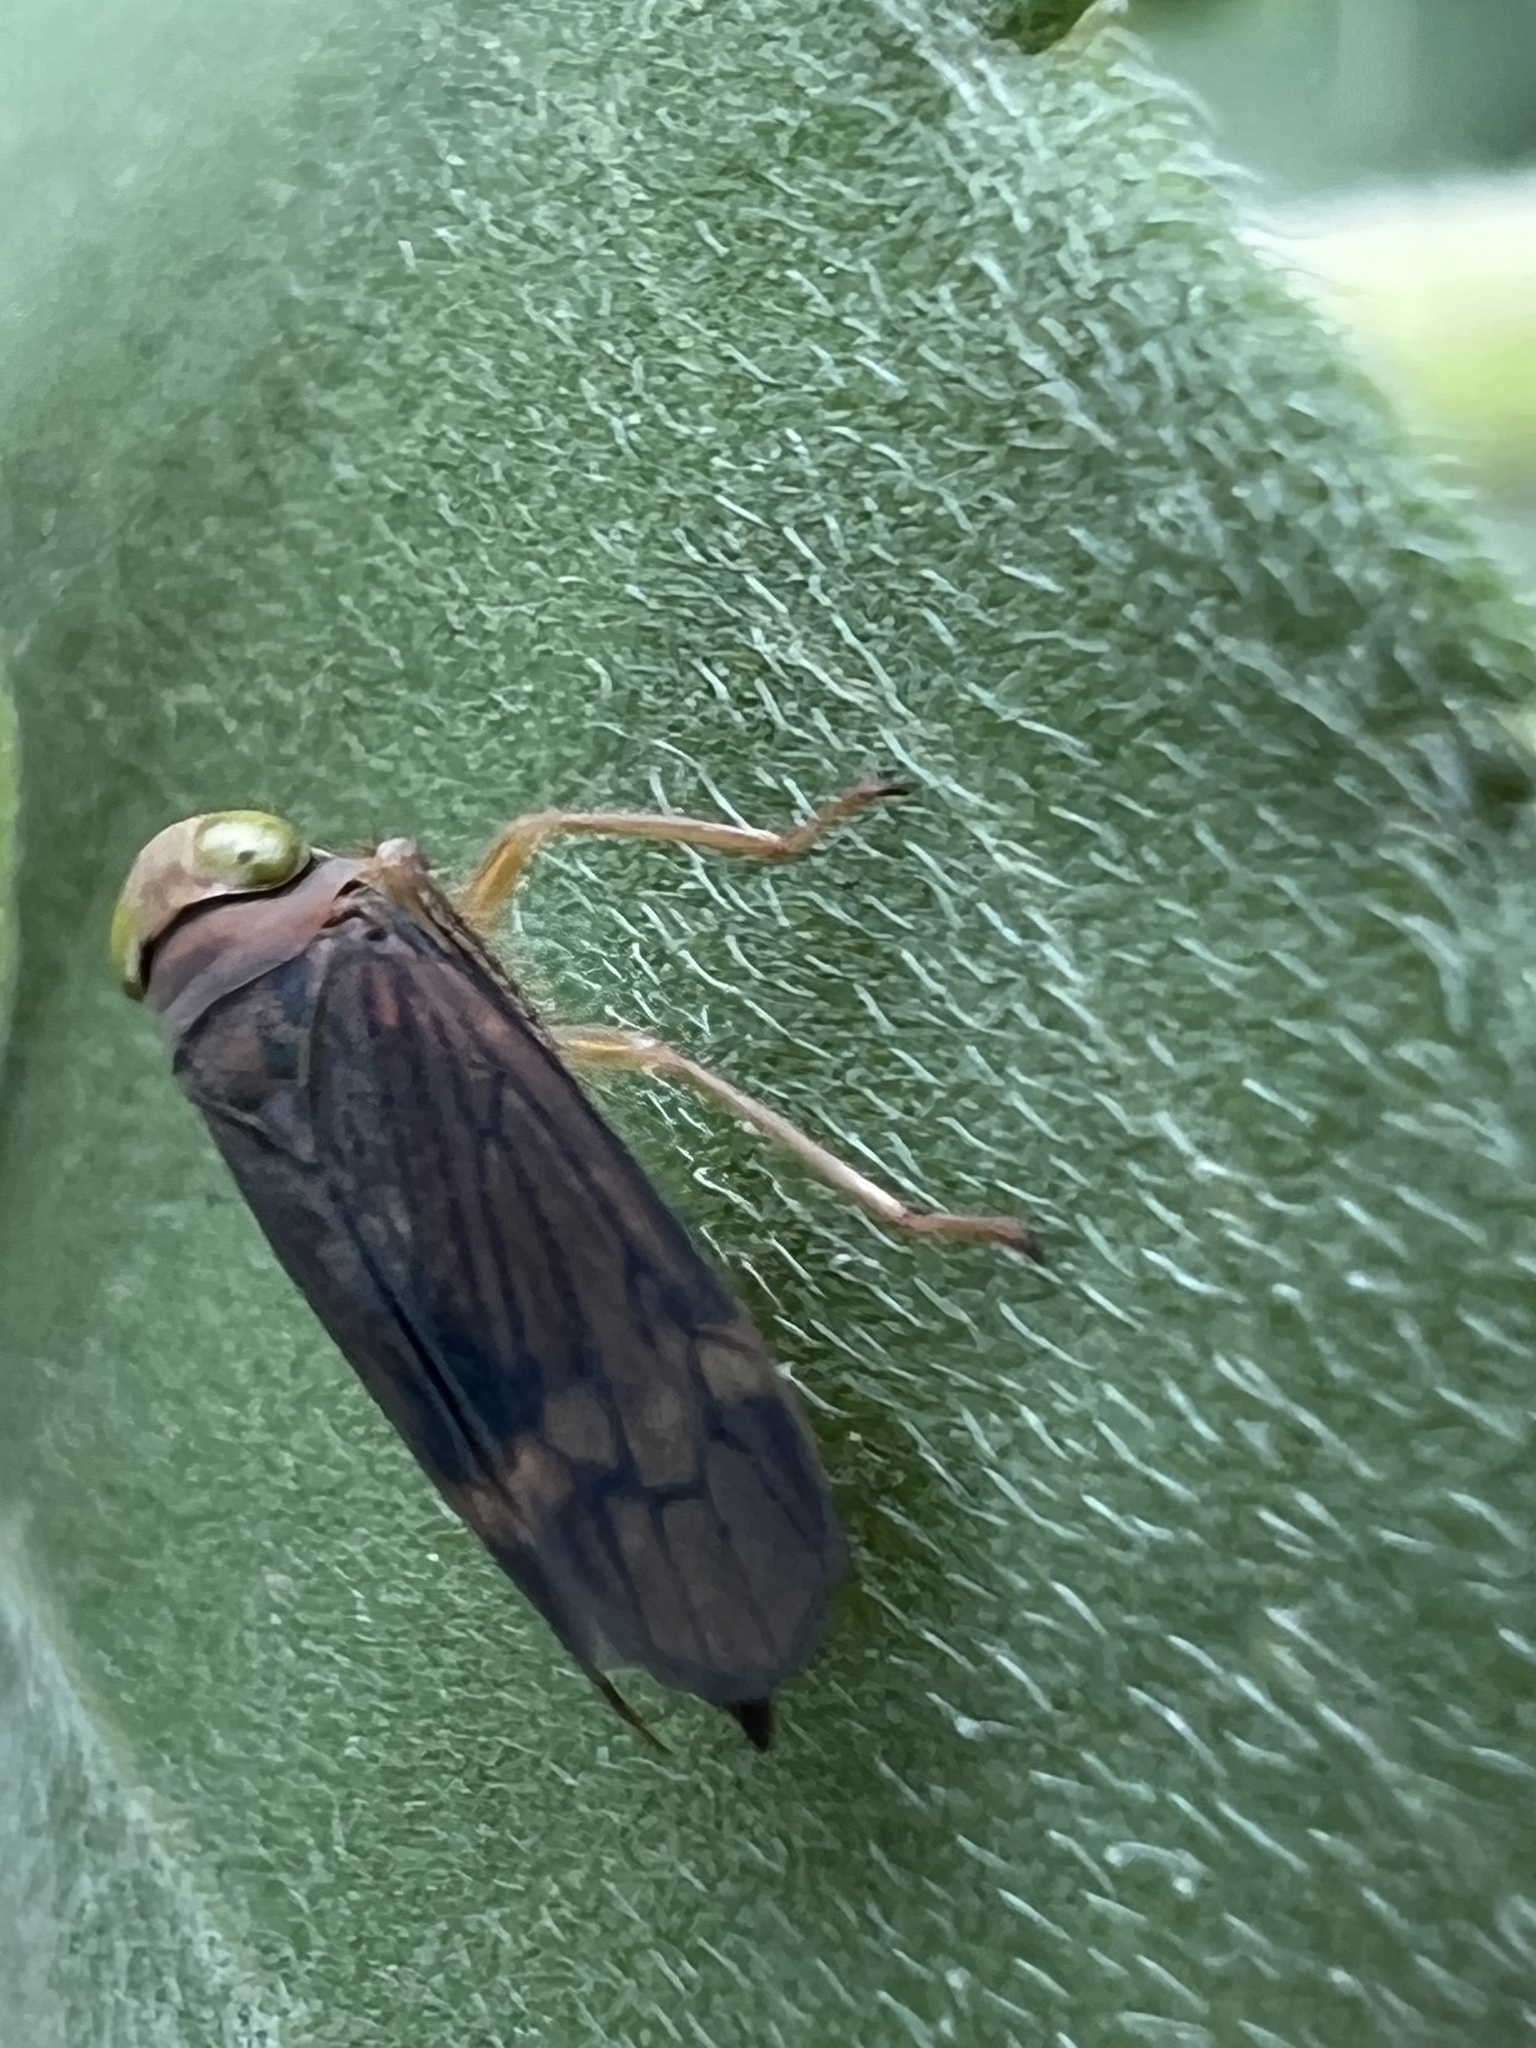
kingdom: Animalia
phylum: Arthropoda
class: Insecta
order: Hemiptera
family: Cicadellidae
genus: Jikradia
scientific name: Jikradia olitoria
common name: Coppery leafhopper
